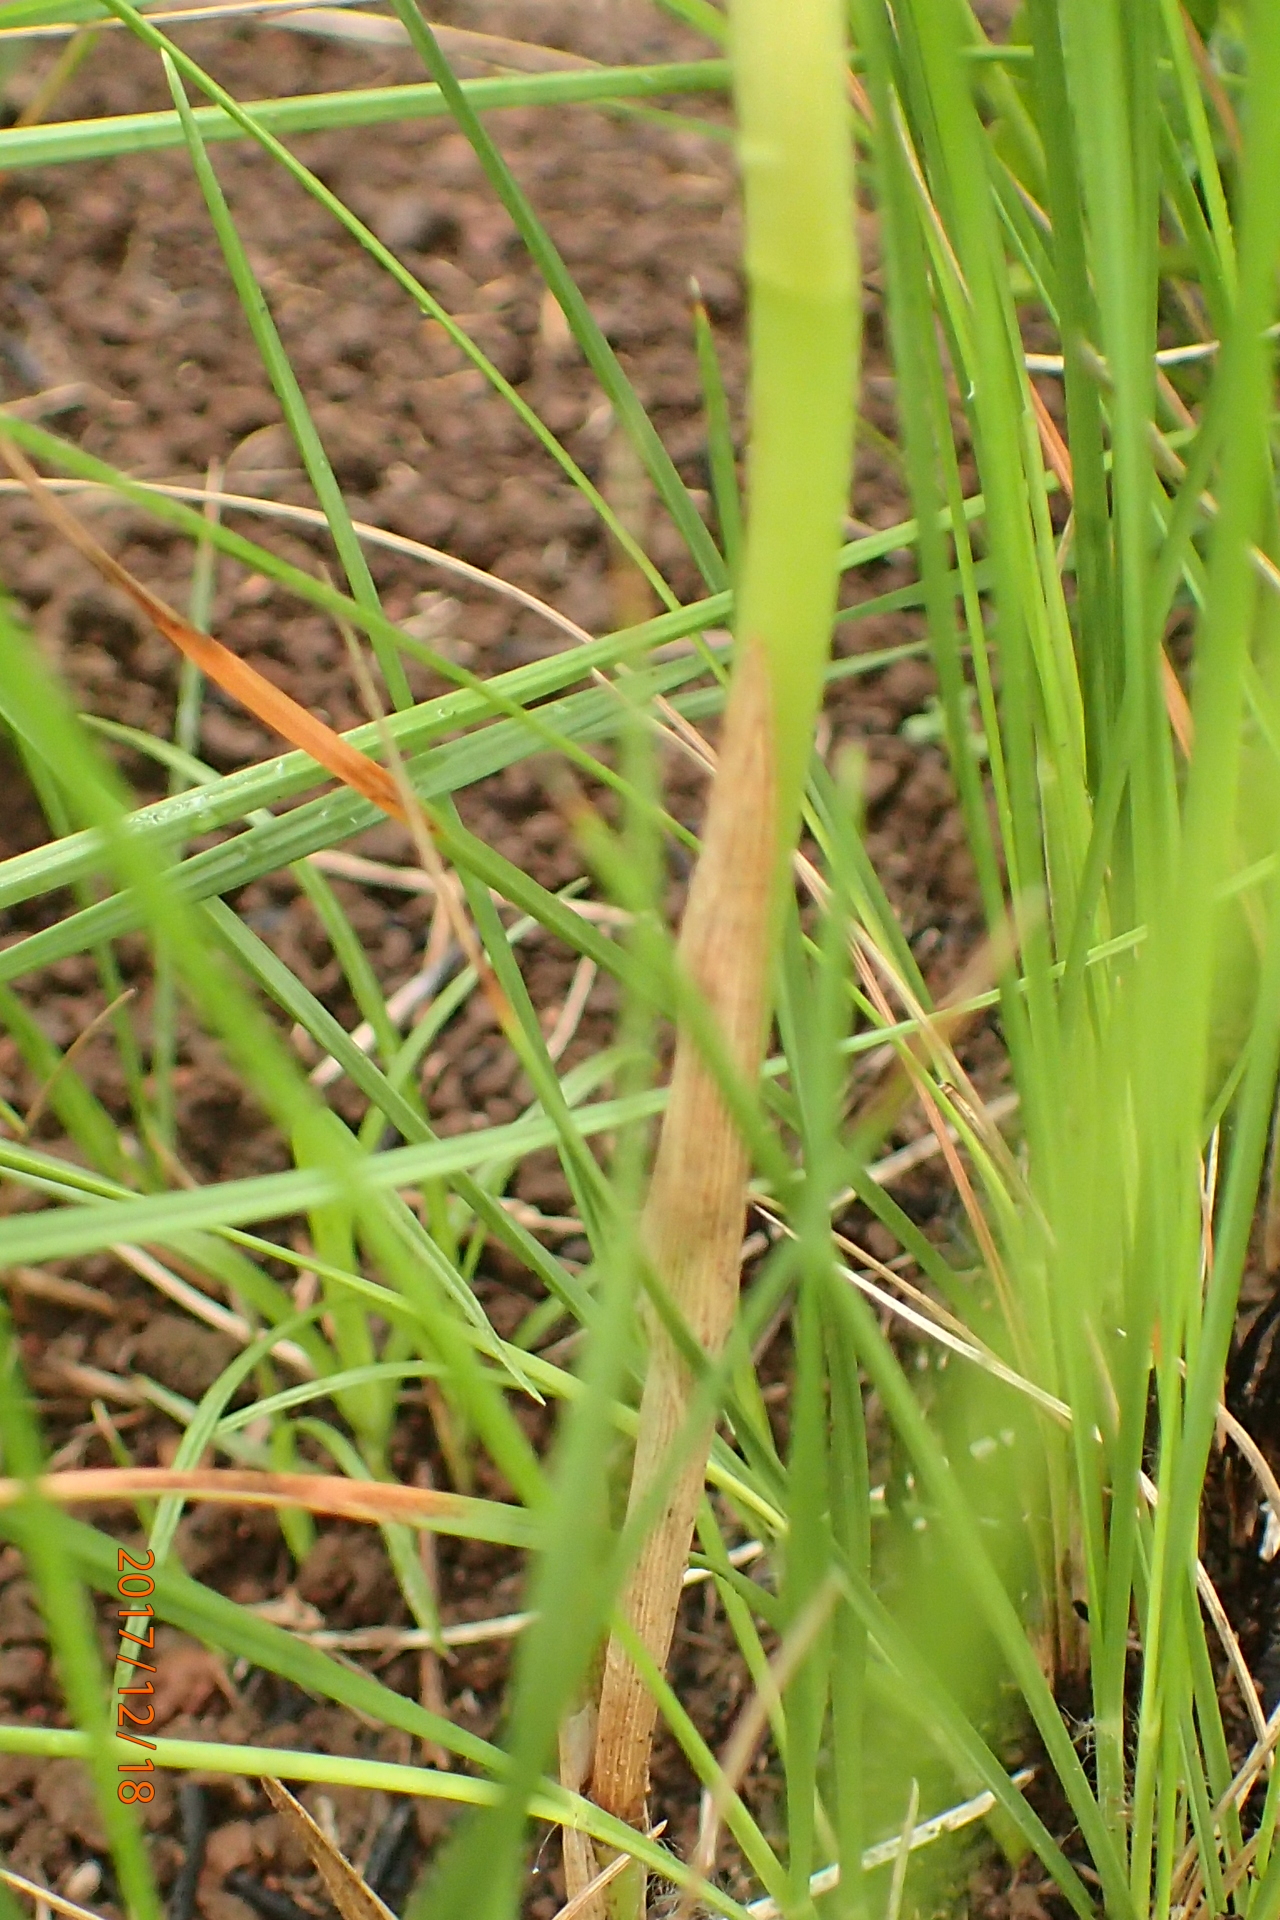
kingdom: Plantae
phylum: Tracheophyta
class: Liliopsida
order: Asparagales
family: Orchidaceae
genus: Eulophia
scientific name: Eulophia leontoglossa
